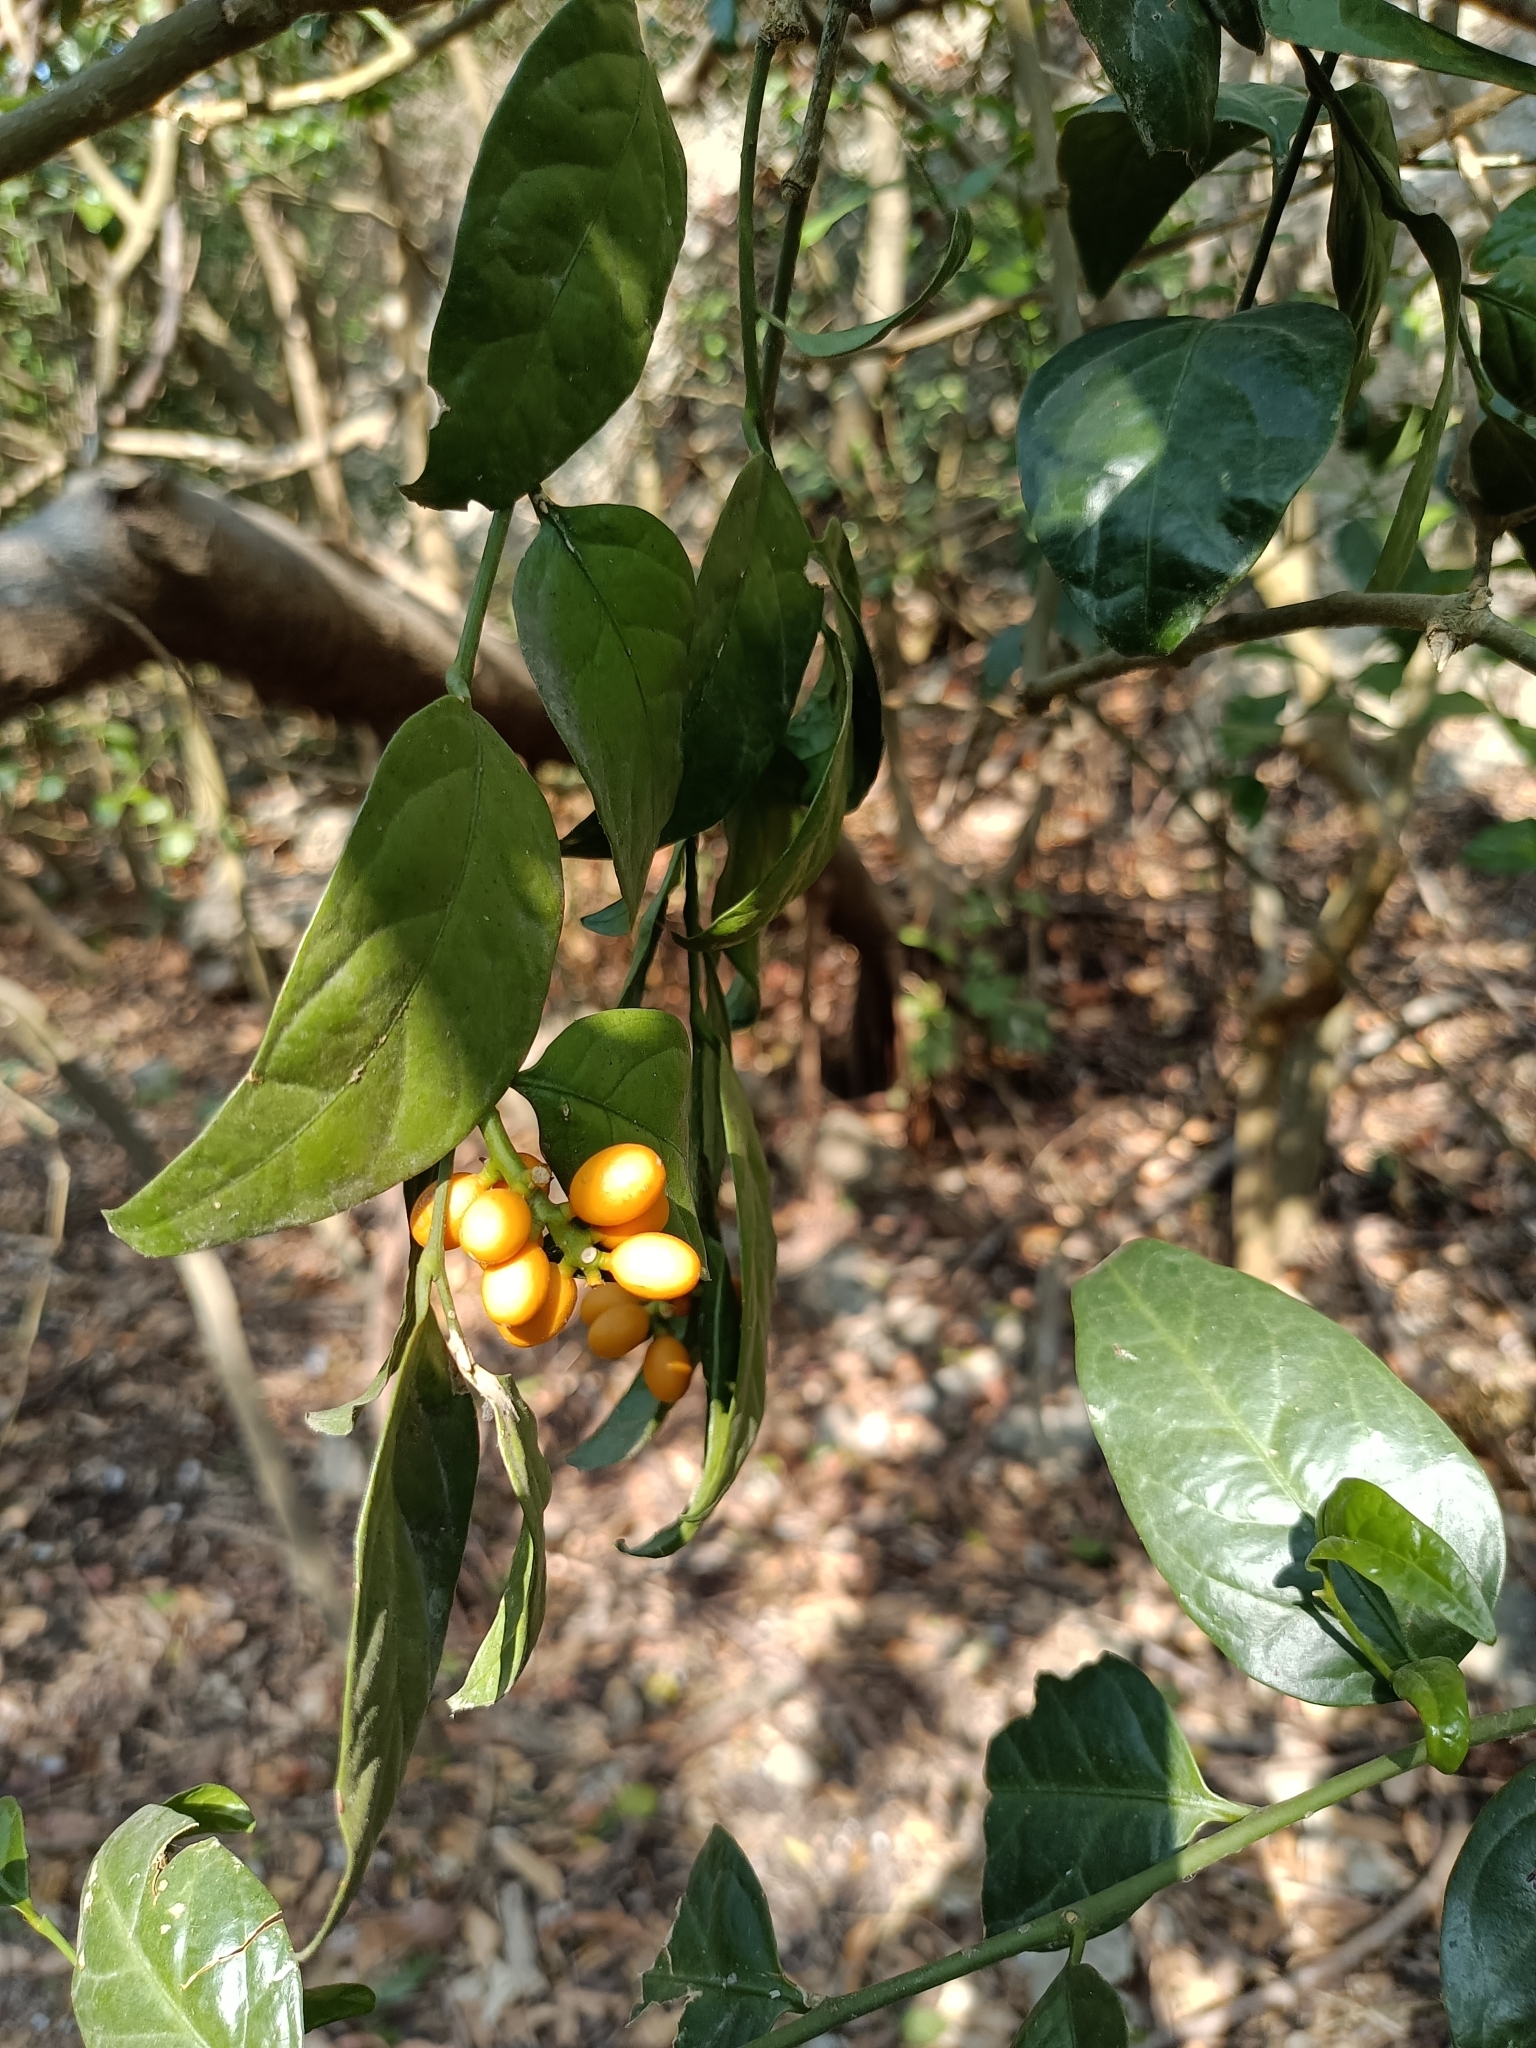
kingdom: Plantae
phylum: Tracheophyta
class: Magnoliopsida
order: Santalales
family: Opiliaceae
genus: Champereia
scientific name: Champereia manillana
